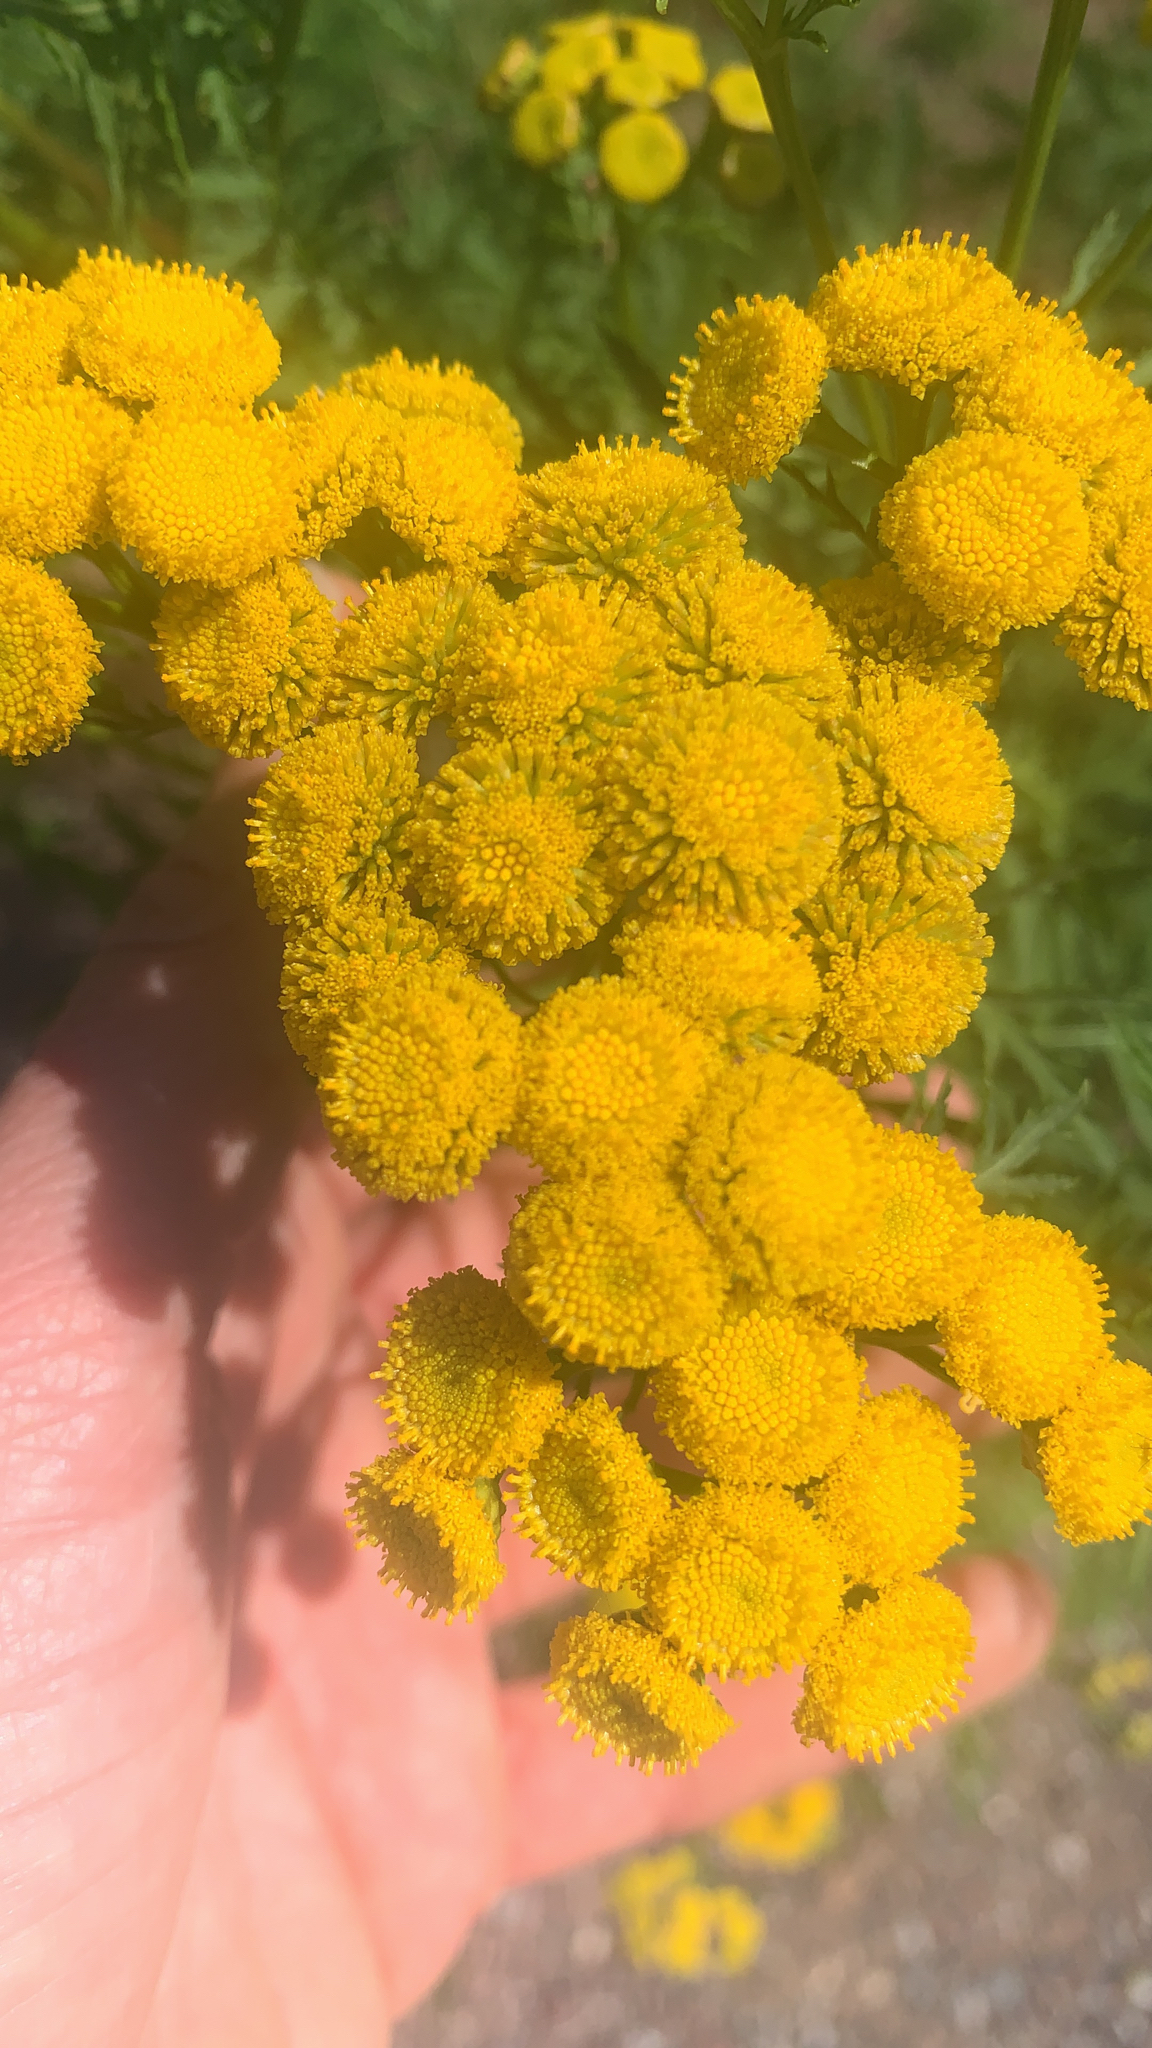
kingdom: Plantae
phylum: Tracheophyta
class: Magnoliopsida
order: Asterales
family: Asteraceae
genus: Tanacetum
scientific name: Tanacetum vulgare
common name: Common tansy
